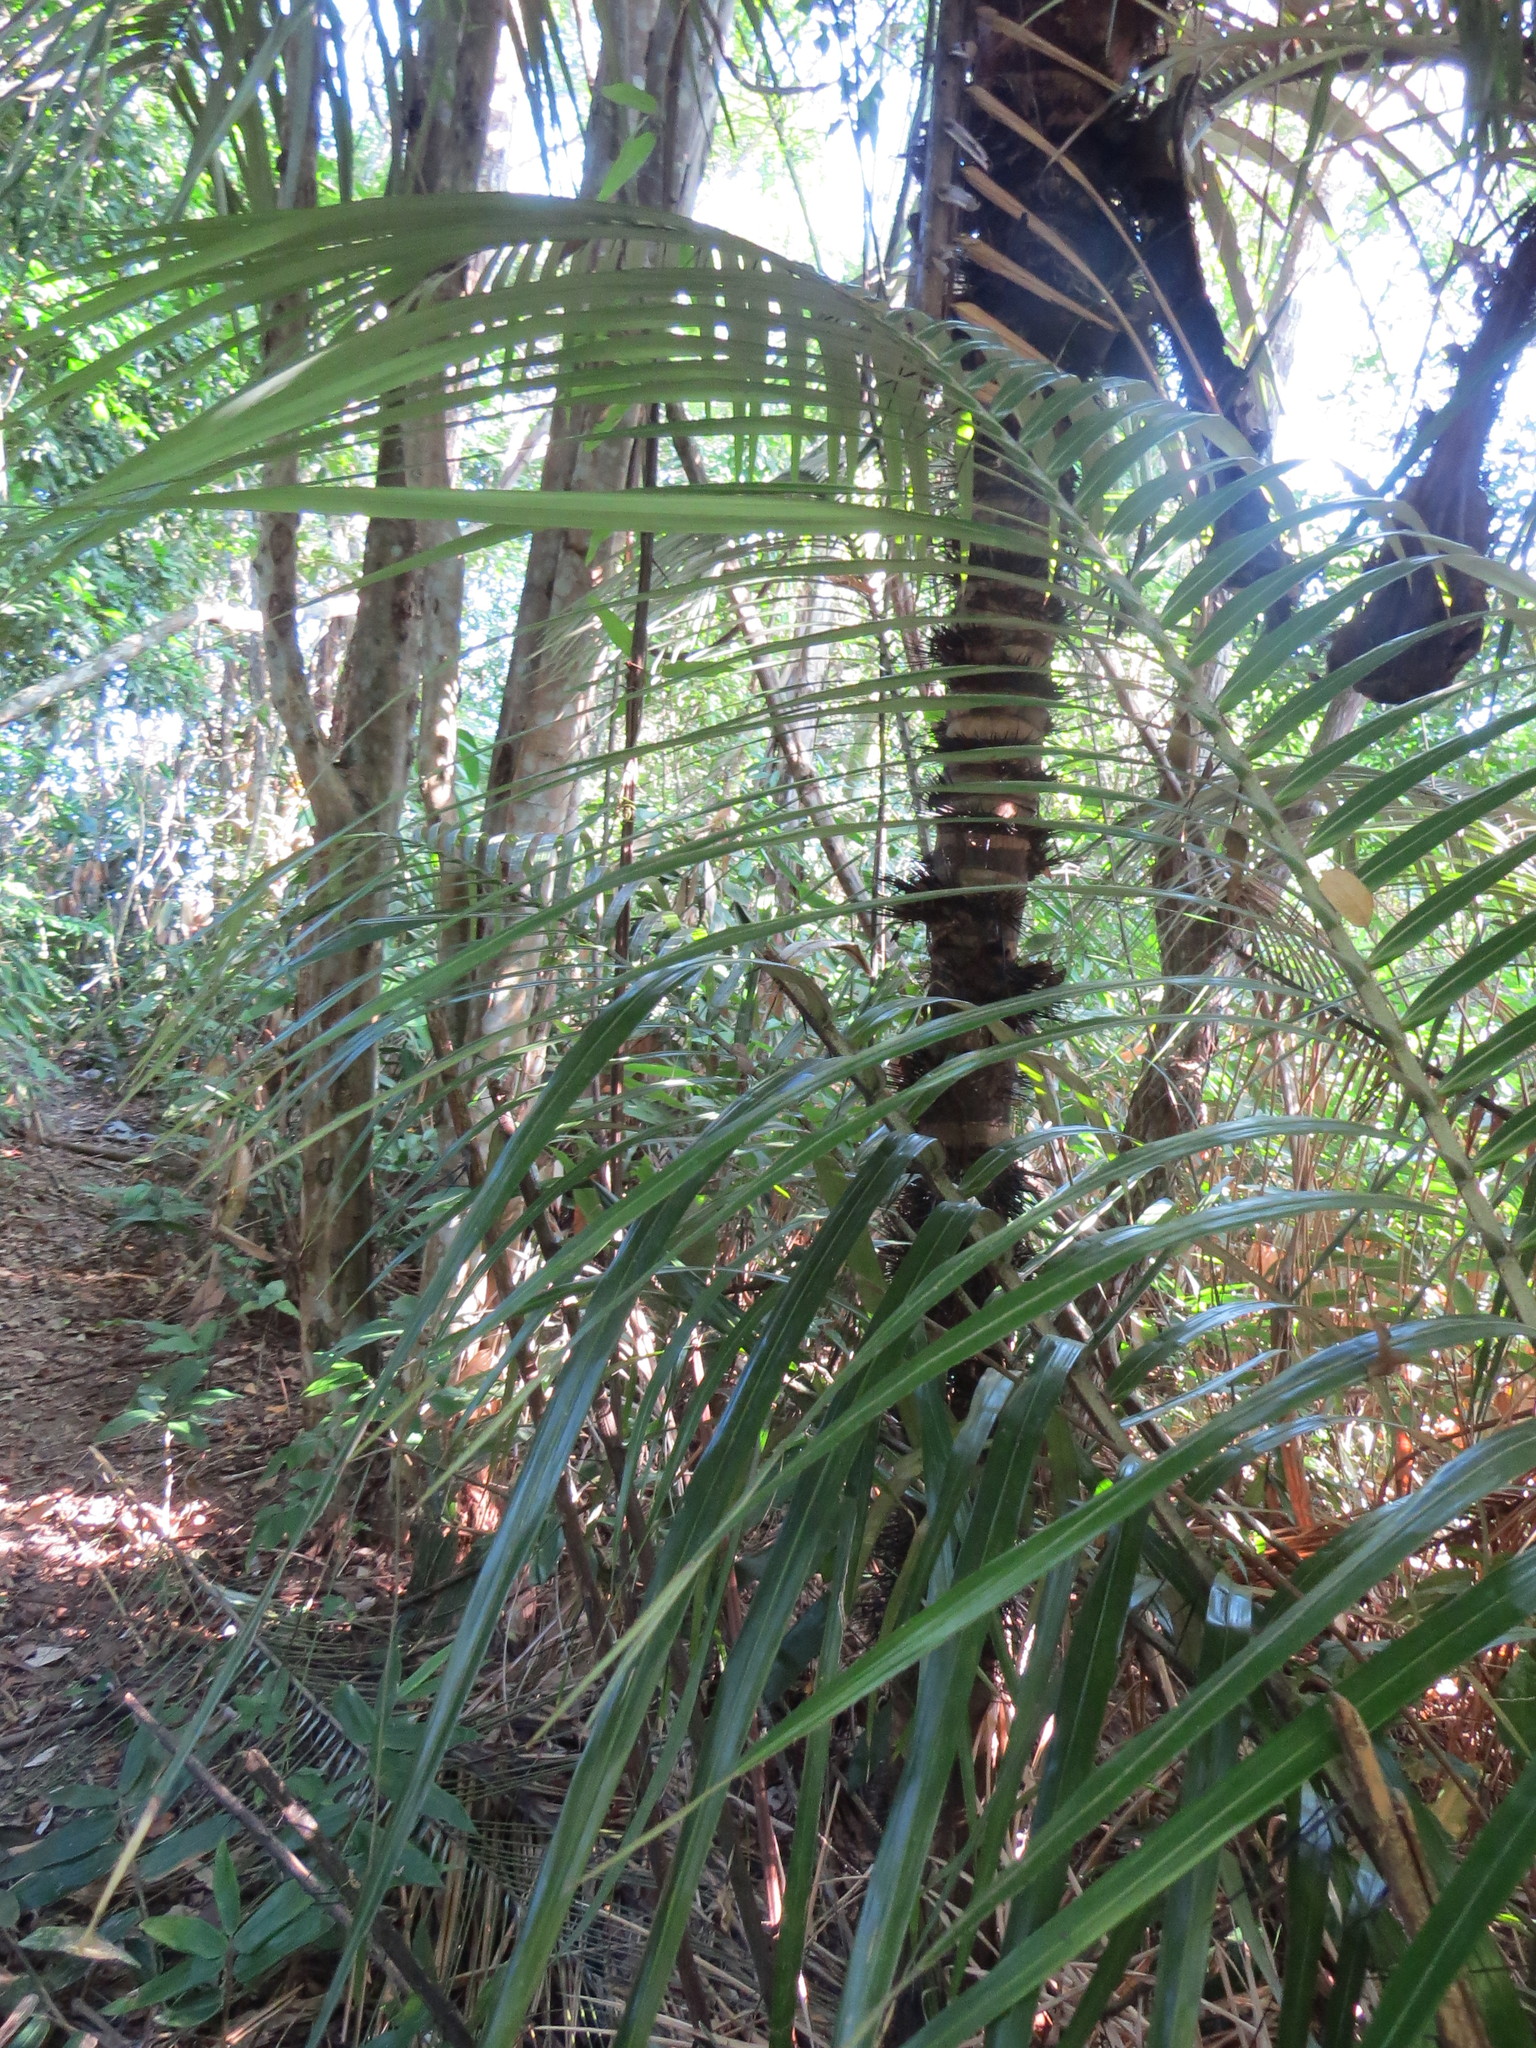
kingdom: Plantae
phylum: Tracheophyta
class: Liliopsida
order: Arecales
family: Arecaceae
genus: Astrocaryum
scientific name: Astrocaryum aculeatissimum
